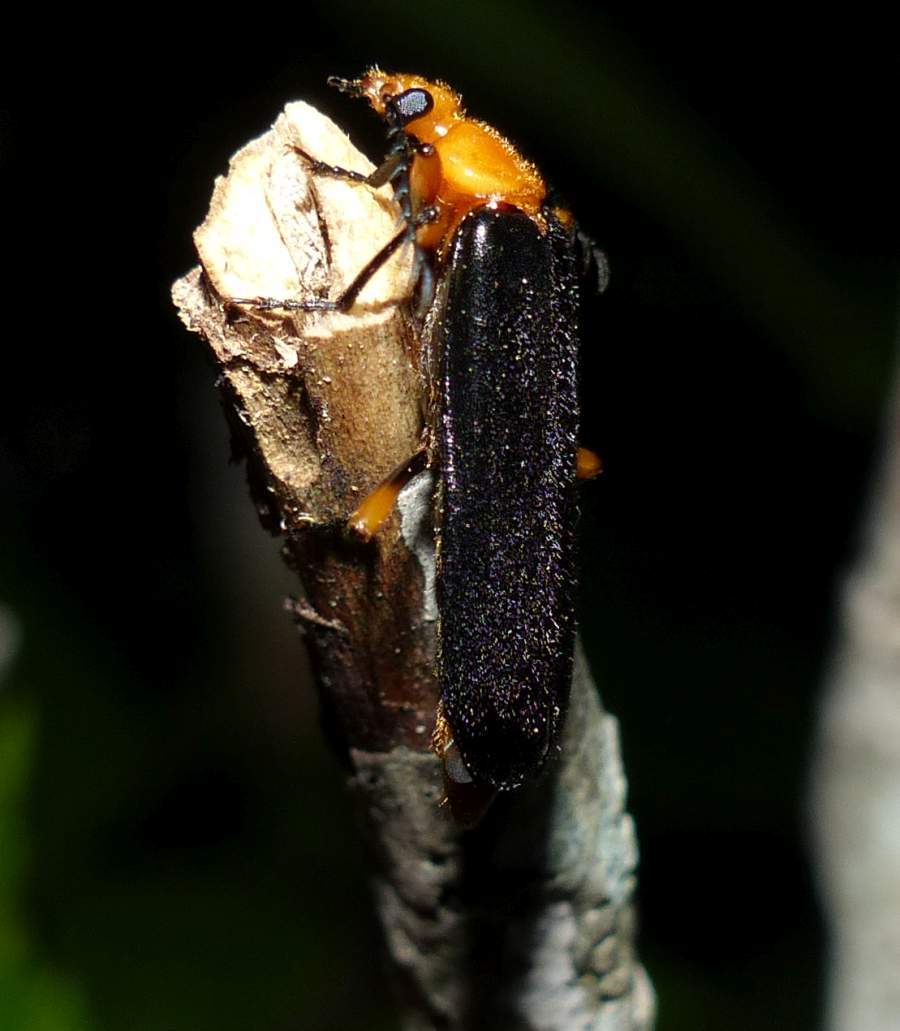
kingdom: Animalia
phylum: Arthropoda
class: Insecta
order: Coleoptera
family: Pyrochroidae
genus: Neopyrochroa
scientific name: Neopyrochroa femoralis
